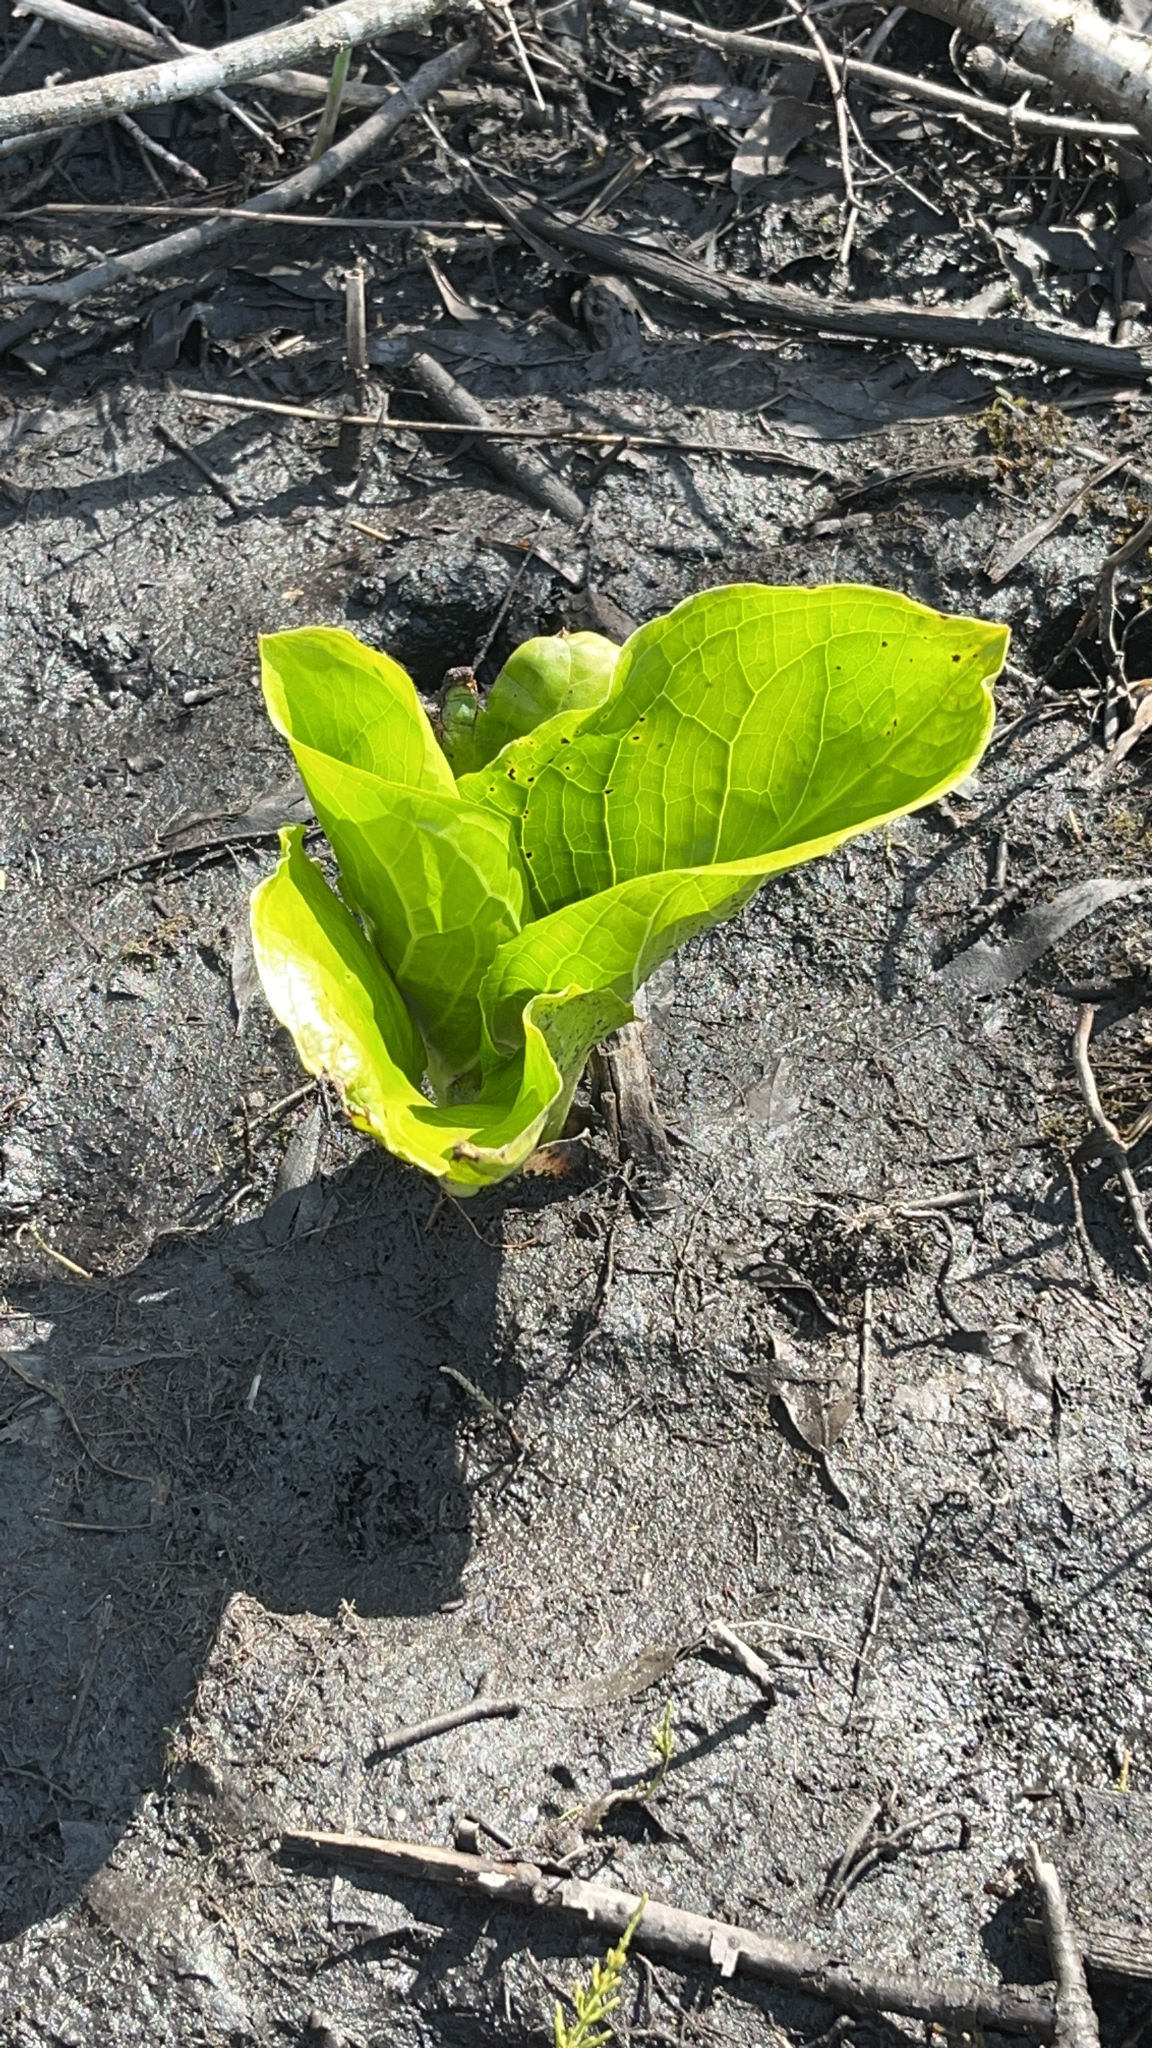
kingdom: Plantae
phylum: Tracheophyta
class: Liliopsida
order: Alismatales
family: Araceae
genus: Symplocarpus
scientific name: Symplocarpus foetidus
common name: Eastern skunk cabbage
